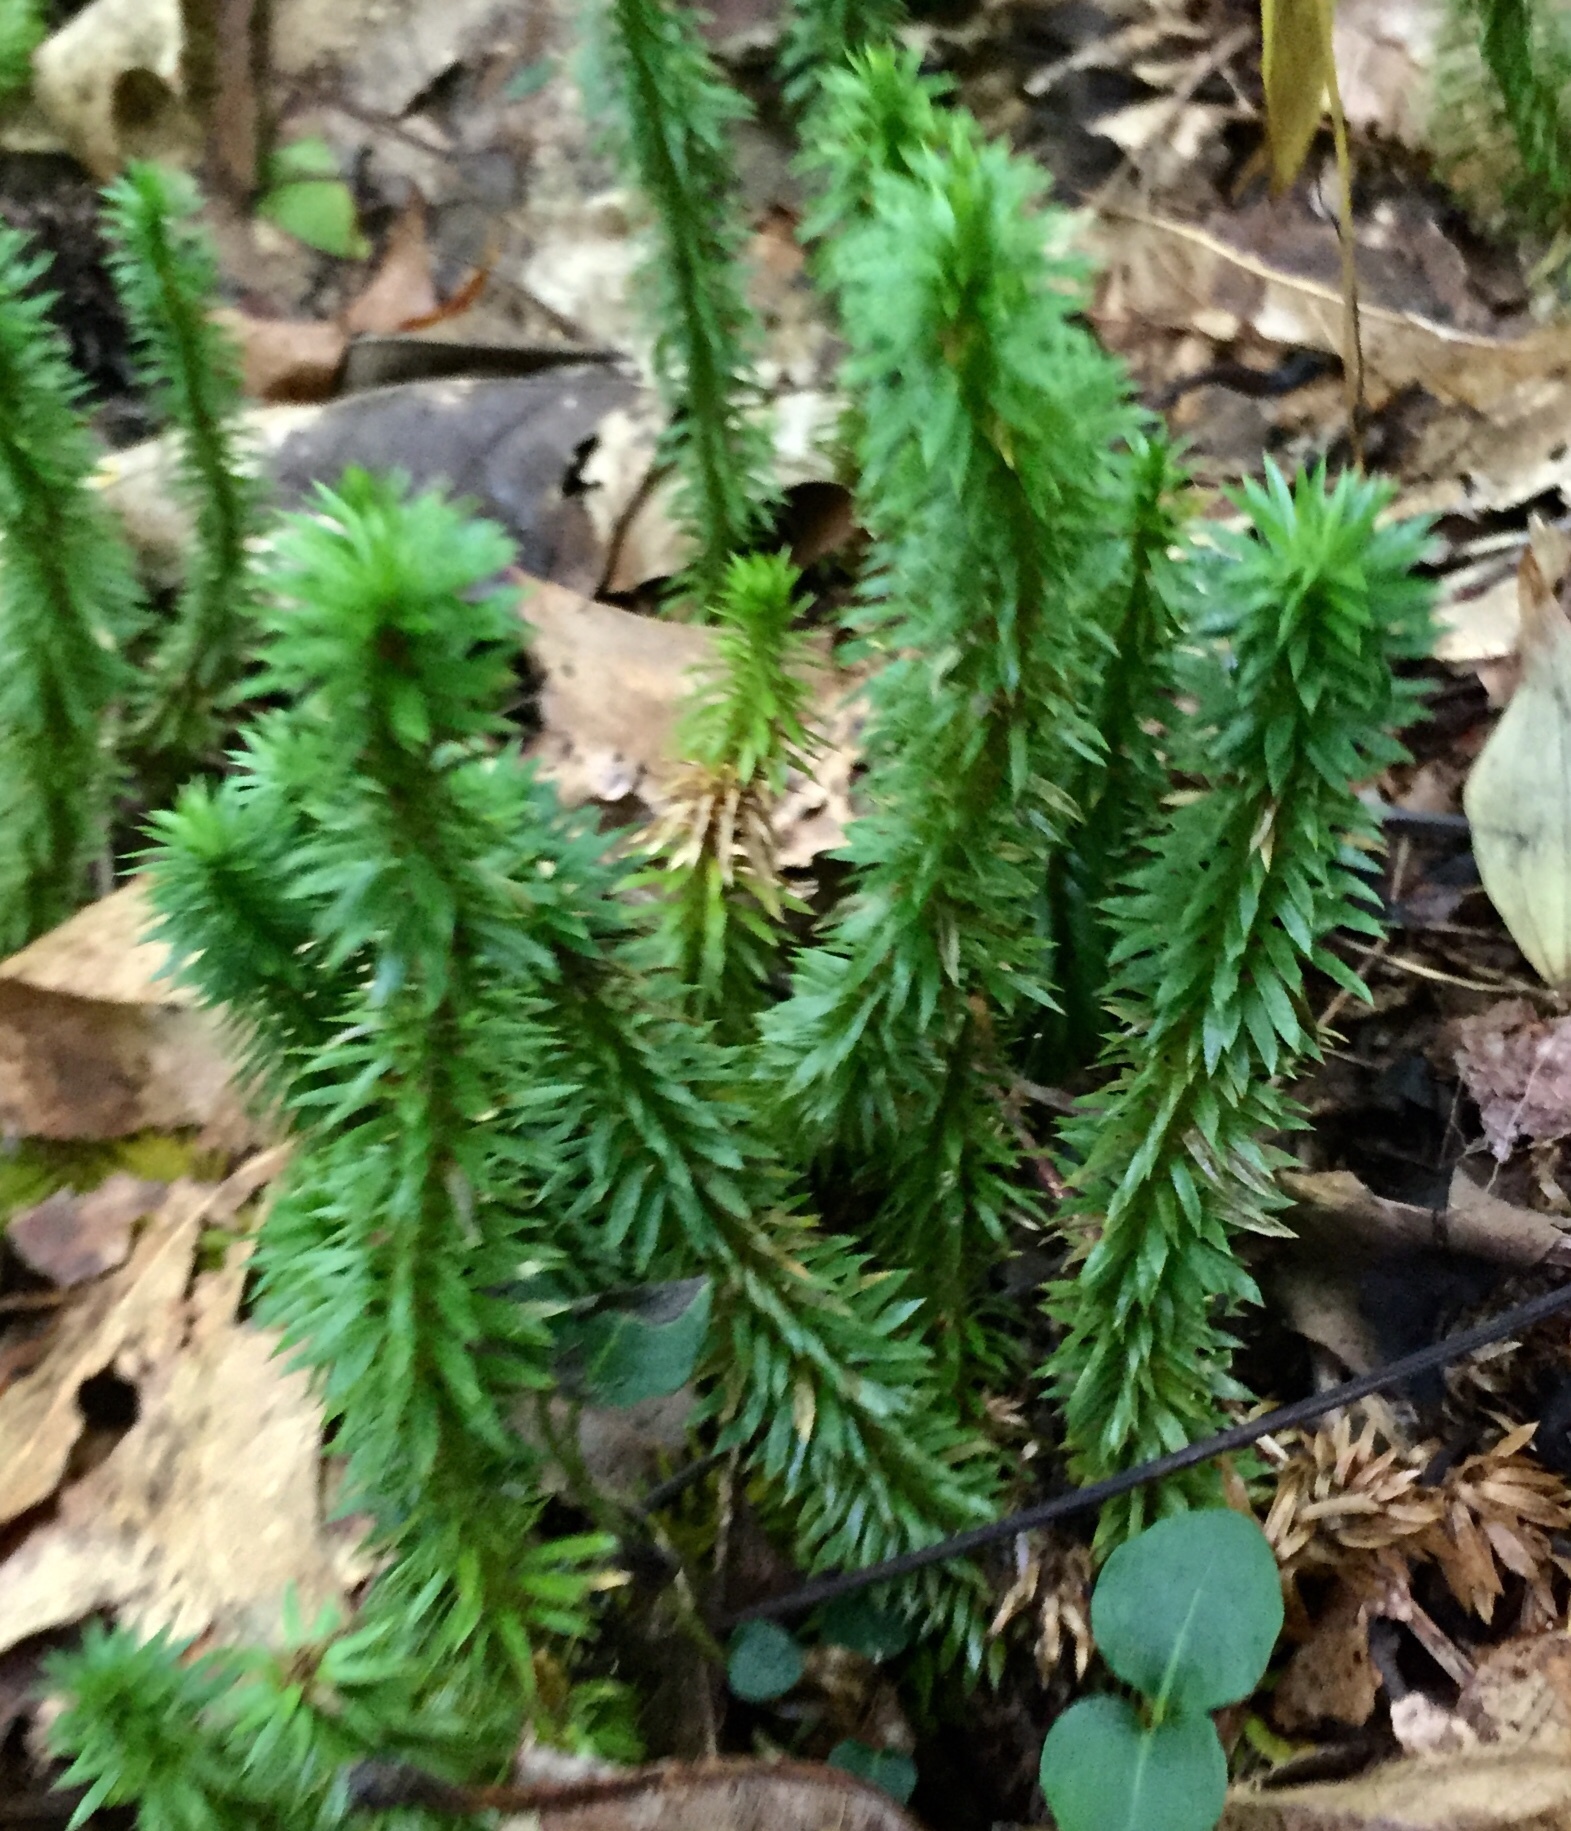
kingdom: Plantae
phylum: Tracheophyta
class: Lycopodiopsida
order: Lycopodiales
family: Lycopodiaceae
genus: Huperzia
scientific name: Huperzia lucidula
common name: Shining clubmoss
